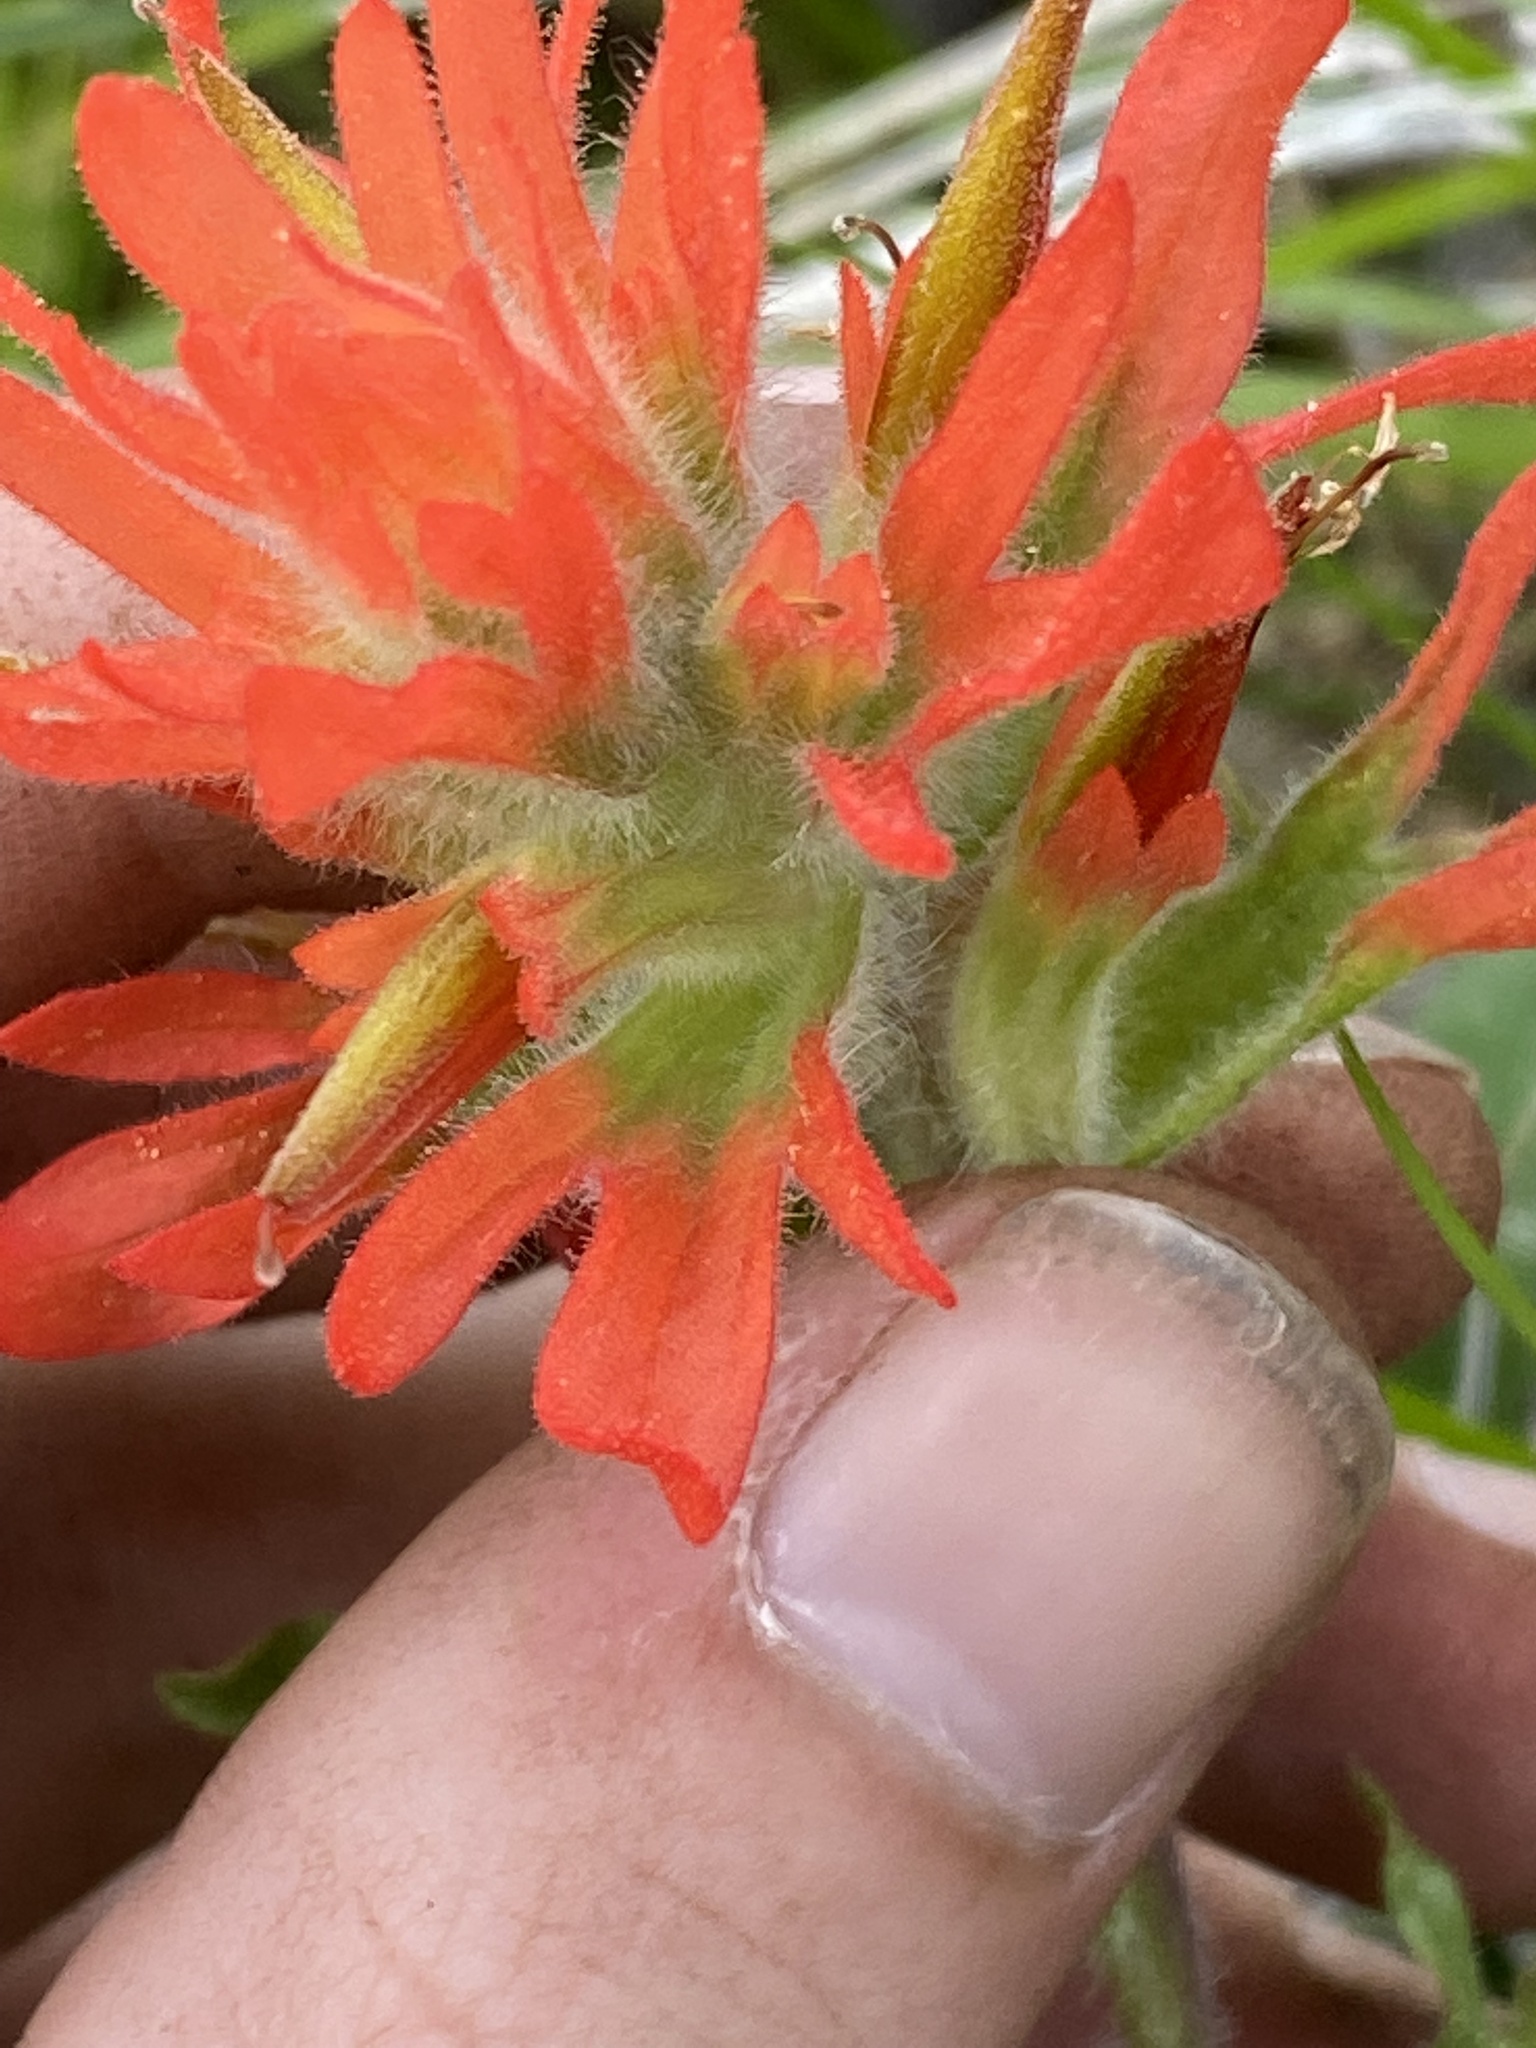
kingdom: Plantae
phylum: Tracheophyta
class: Magnoliopsida
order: Lamiales
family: Orobanchaceae
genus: Castilleja
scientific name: Castilleja applegatei
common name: Wavy-leaf paintbrush
